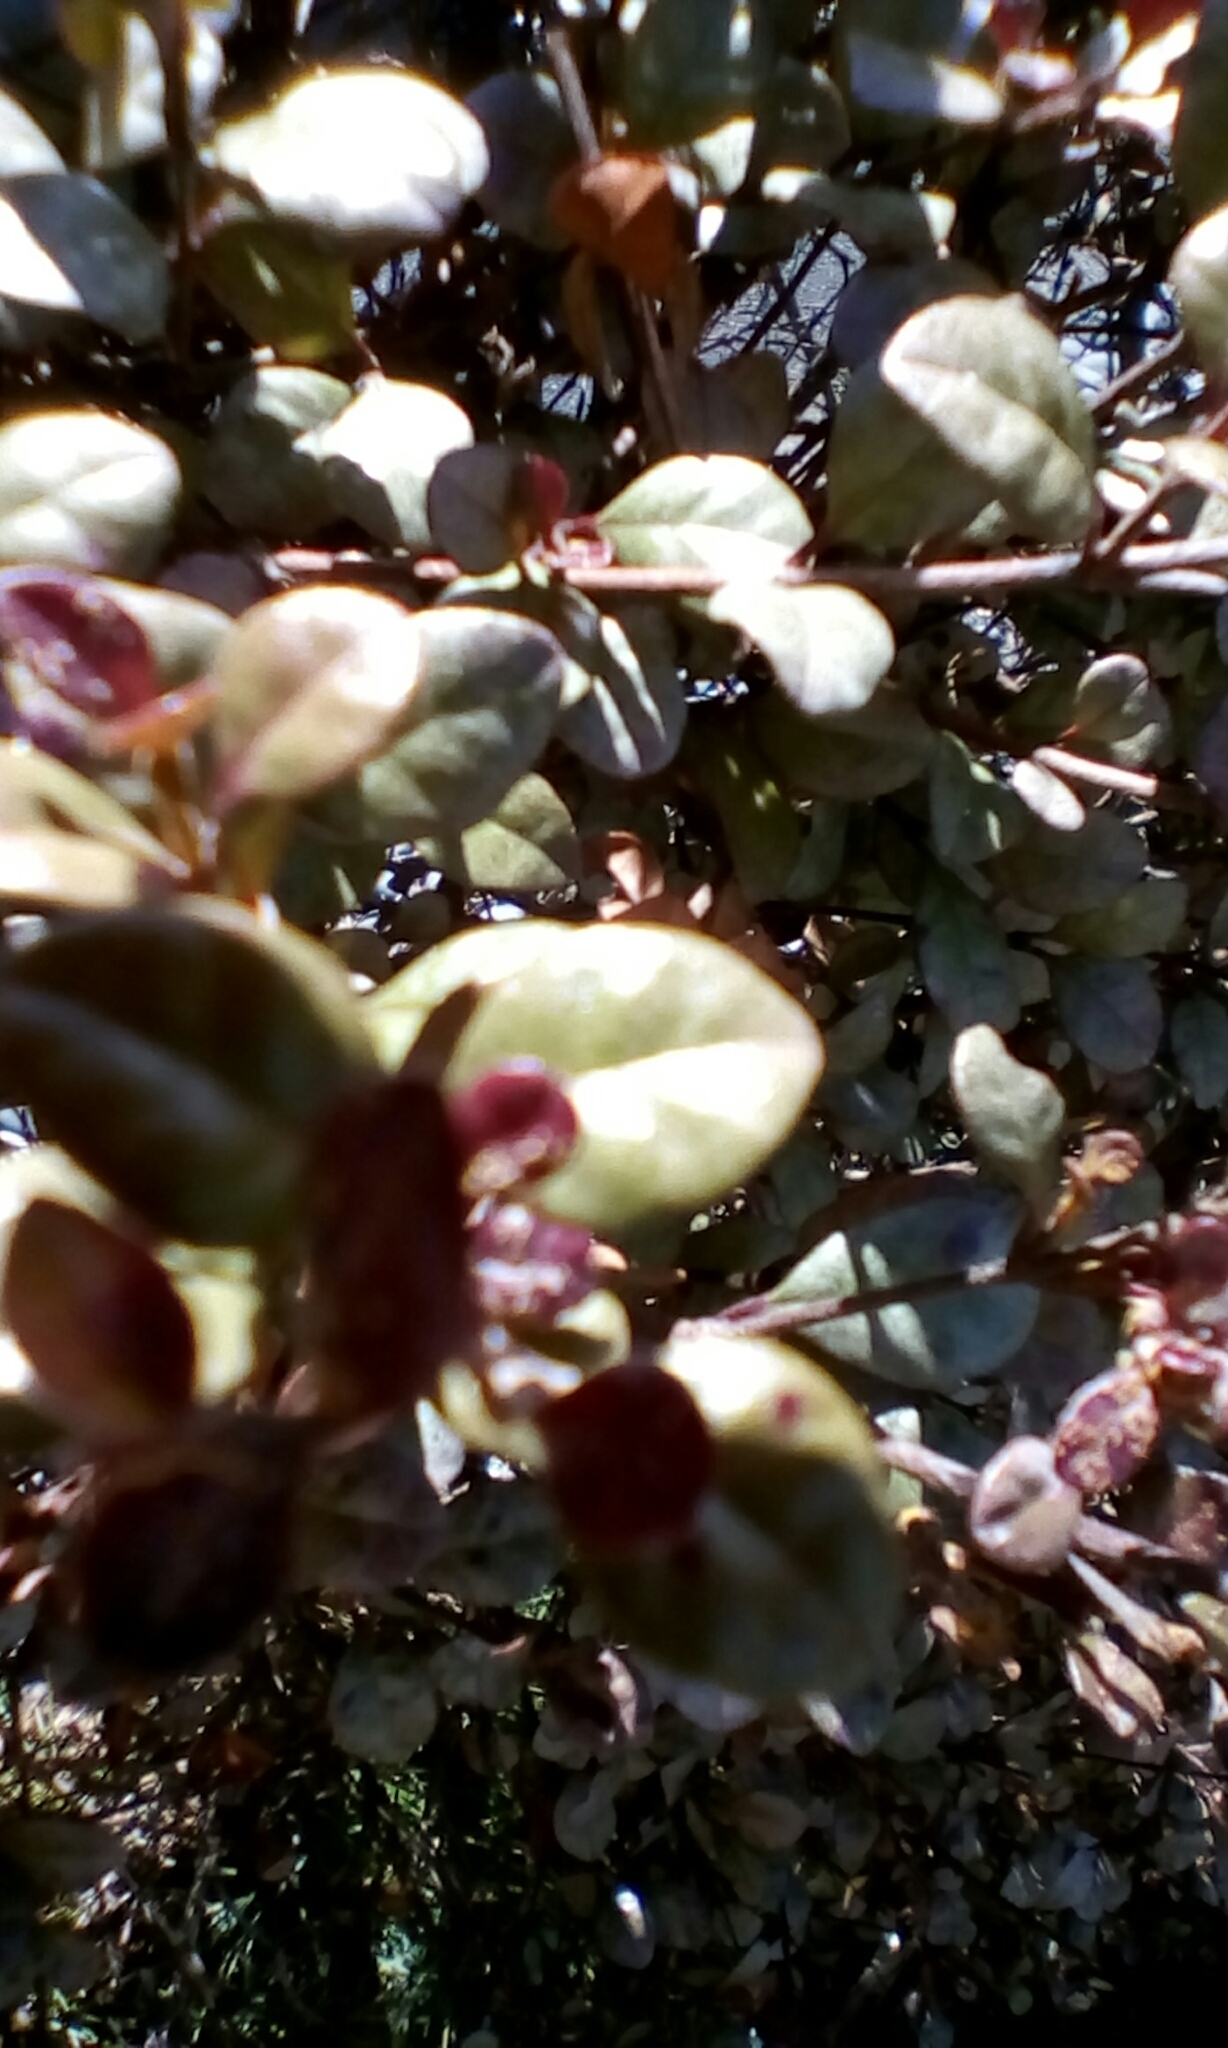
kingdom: Fungi
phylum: Basidiomycota
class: Pucciniomycetes
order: Pucciniales
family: Sphaerophragmiaceae
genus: Austropuccinia
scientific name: Austropuccinia psidii
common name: Myrtle rust
